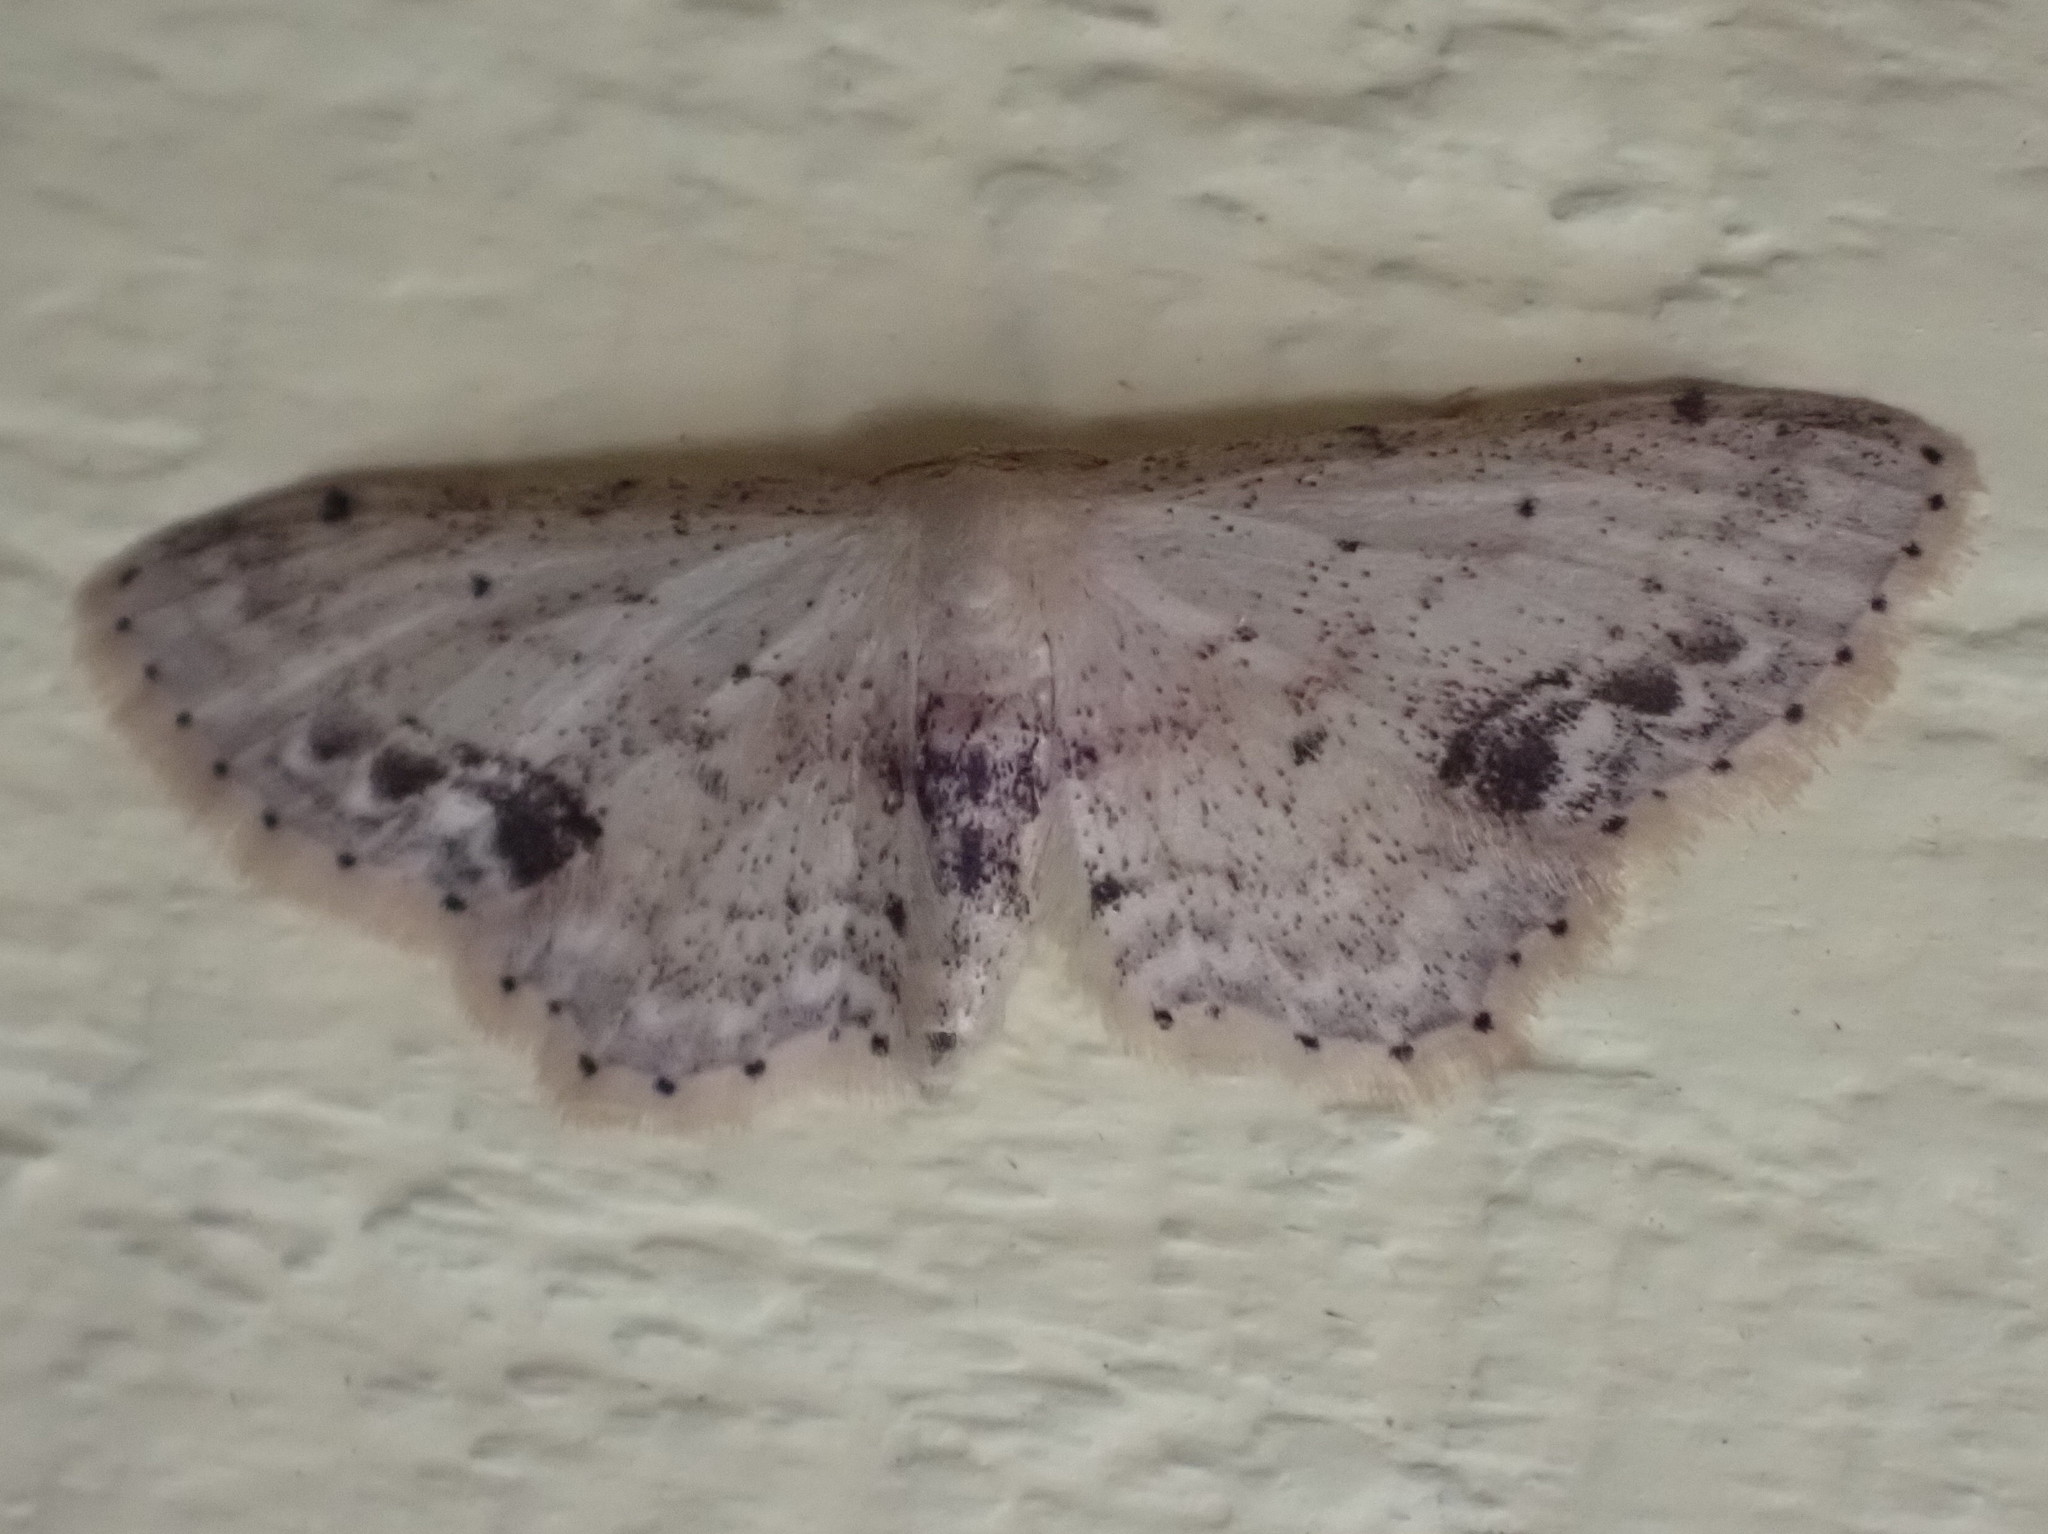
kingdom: Animalia
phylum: Arthropoda
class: Insecta
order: Lepidoptera
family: Geometridae
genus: Idaea
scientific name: Idaea dimidiata
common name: Single-dotted wave
